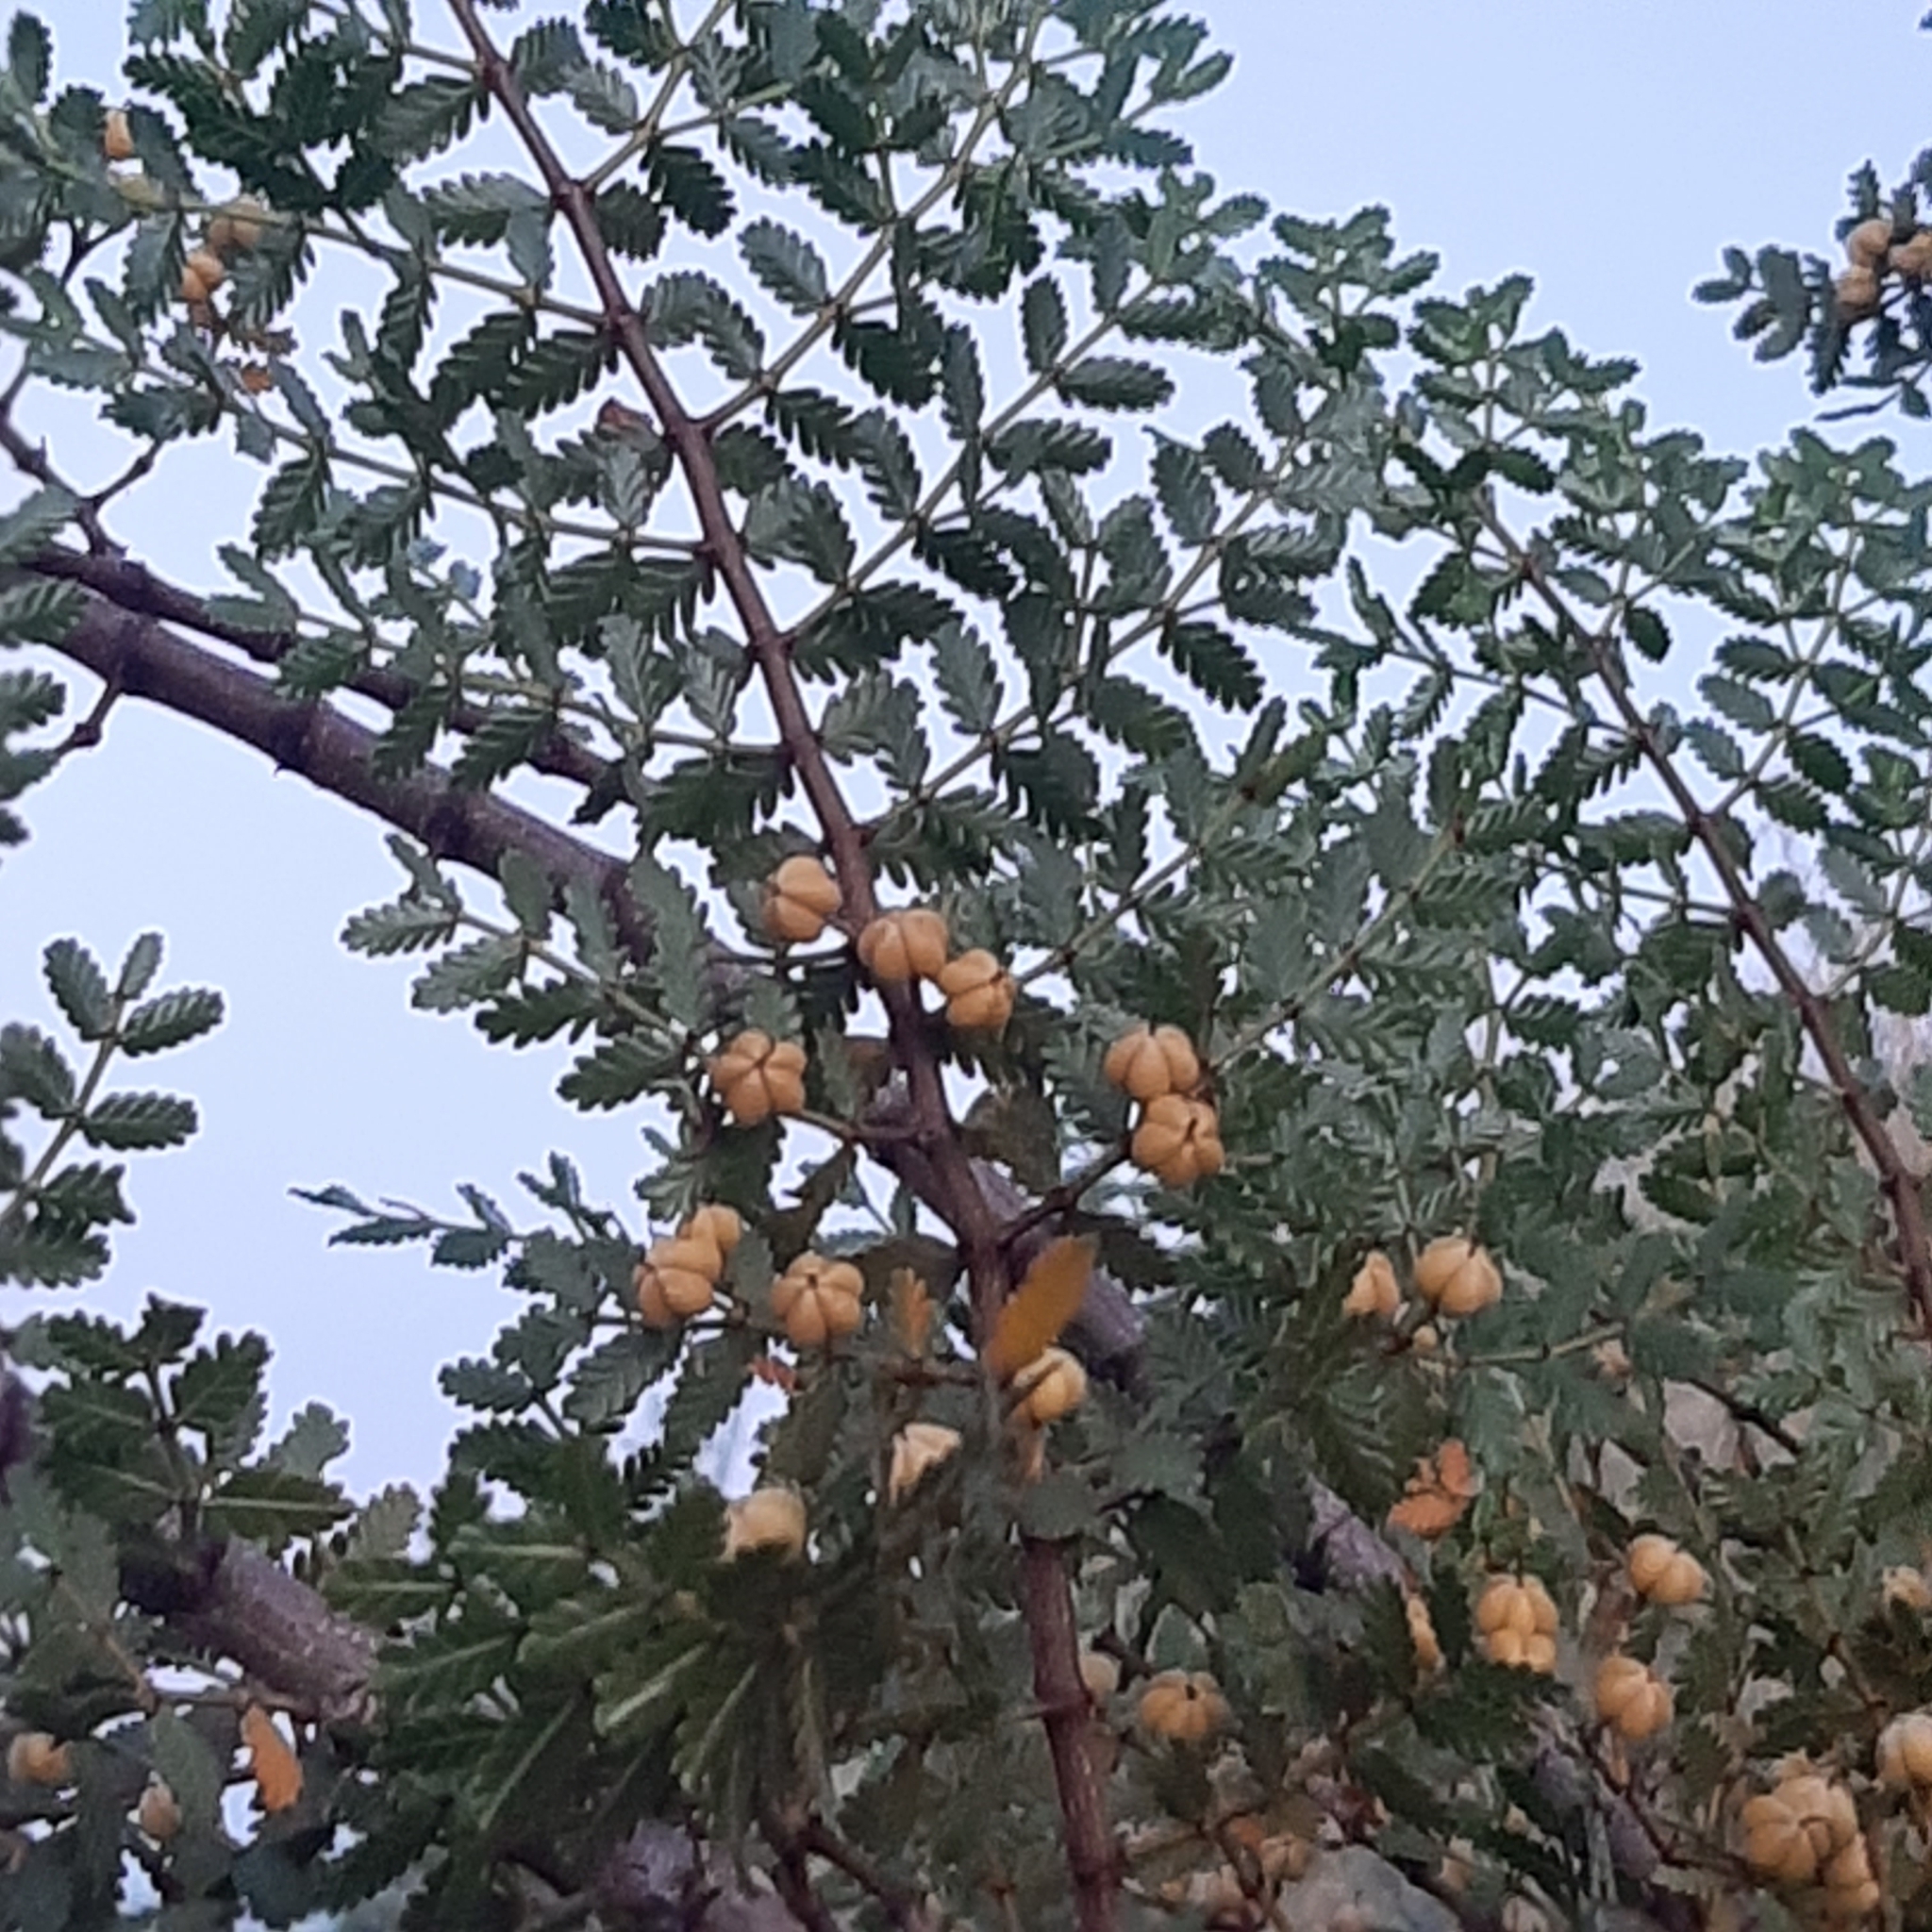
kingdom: Plantae
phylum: Tracheophyta
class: Magnoliopsida
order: Zygophyllales
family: Zygophyllaceae
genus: Larrea
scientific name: Larrea nitida
